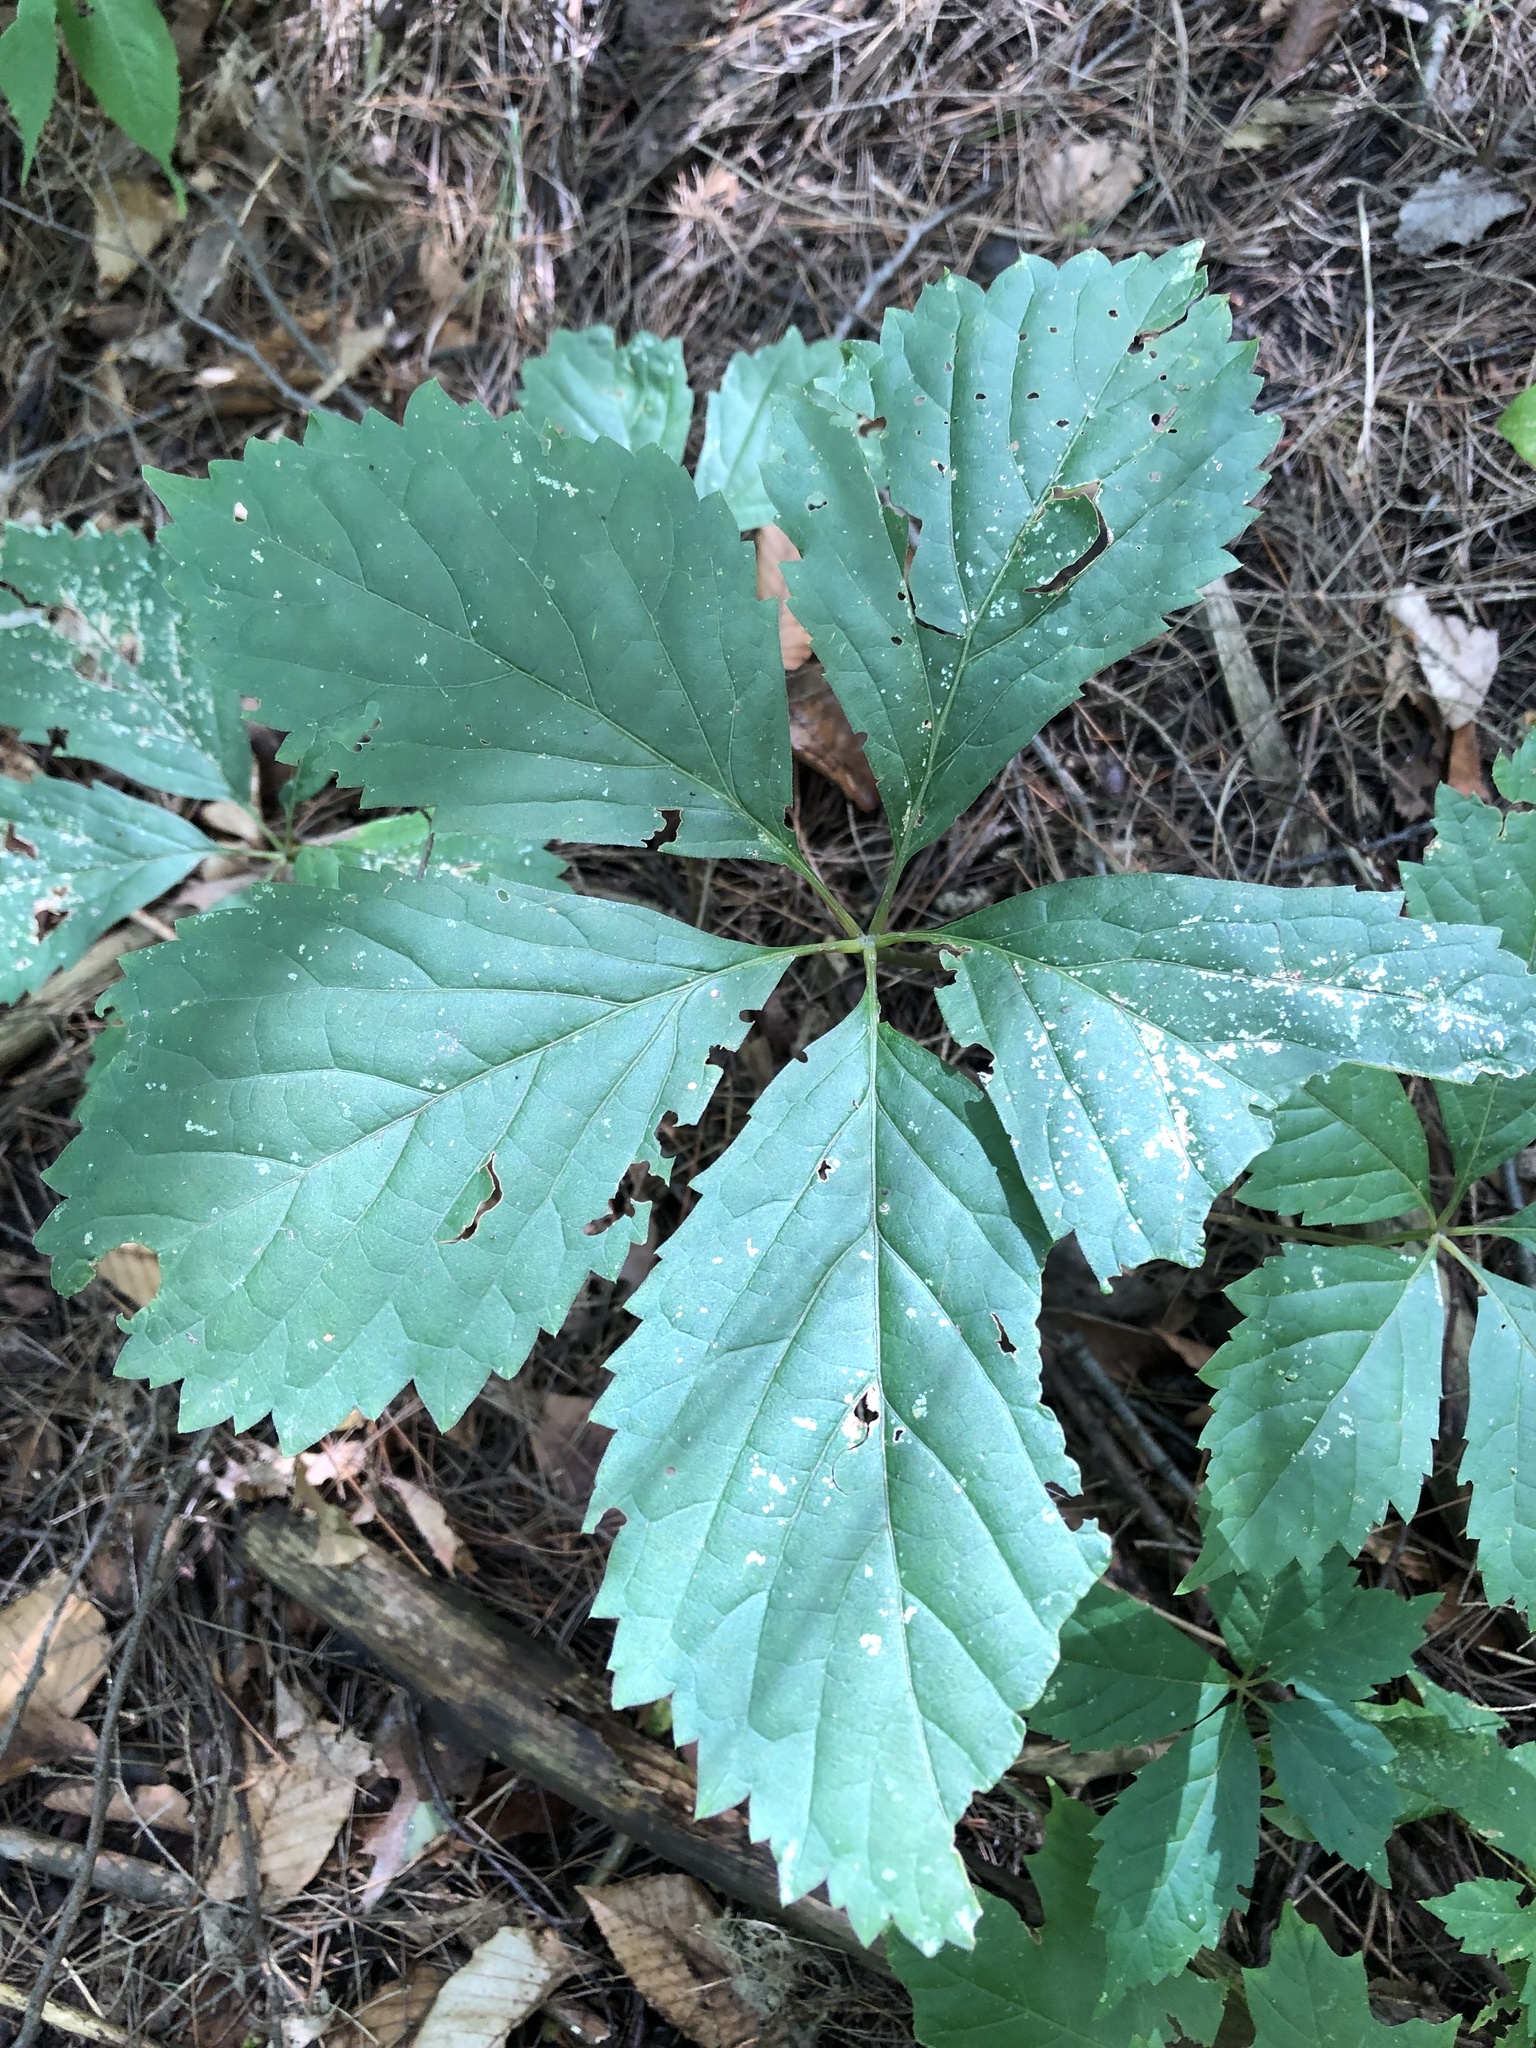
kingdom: Plantae
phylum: Tracheophyta
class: Magnoliopsida
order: Vitales
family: Vitaceae
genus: Parthenocissus
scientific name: Parthenocissus quinquefolia
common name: Virginia-creeper
